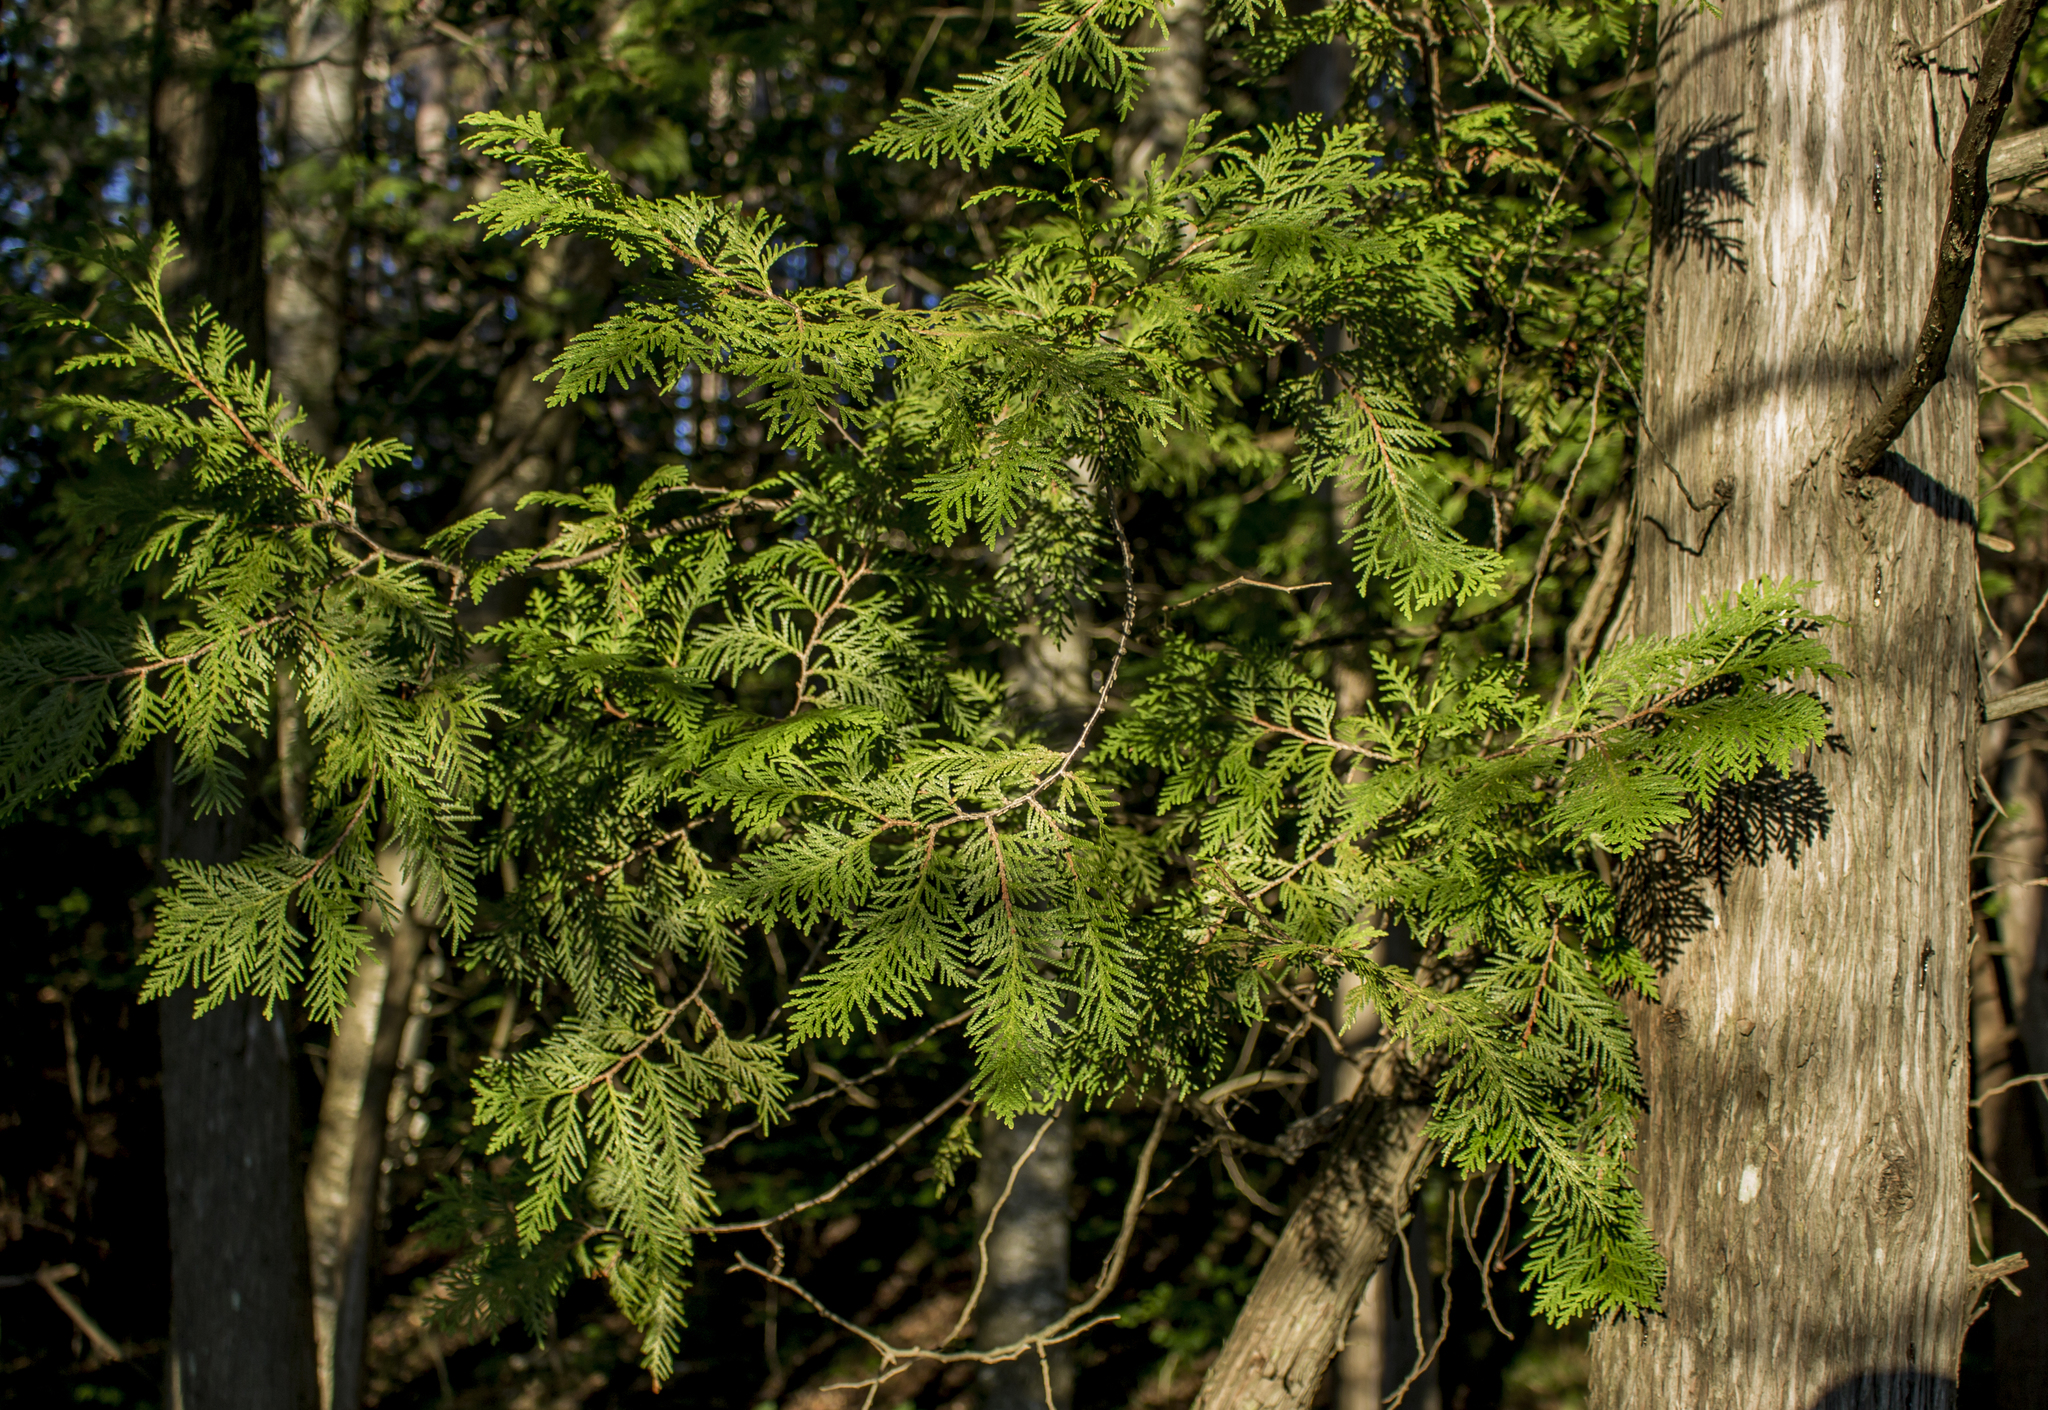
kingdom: Plantae
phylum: Tracheophyta
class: Pinopsida
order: Pinales
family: Cupressaceae
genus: Thuja
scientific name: Thuja occidentalis
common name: Northern white-cedar
